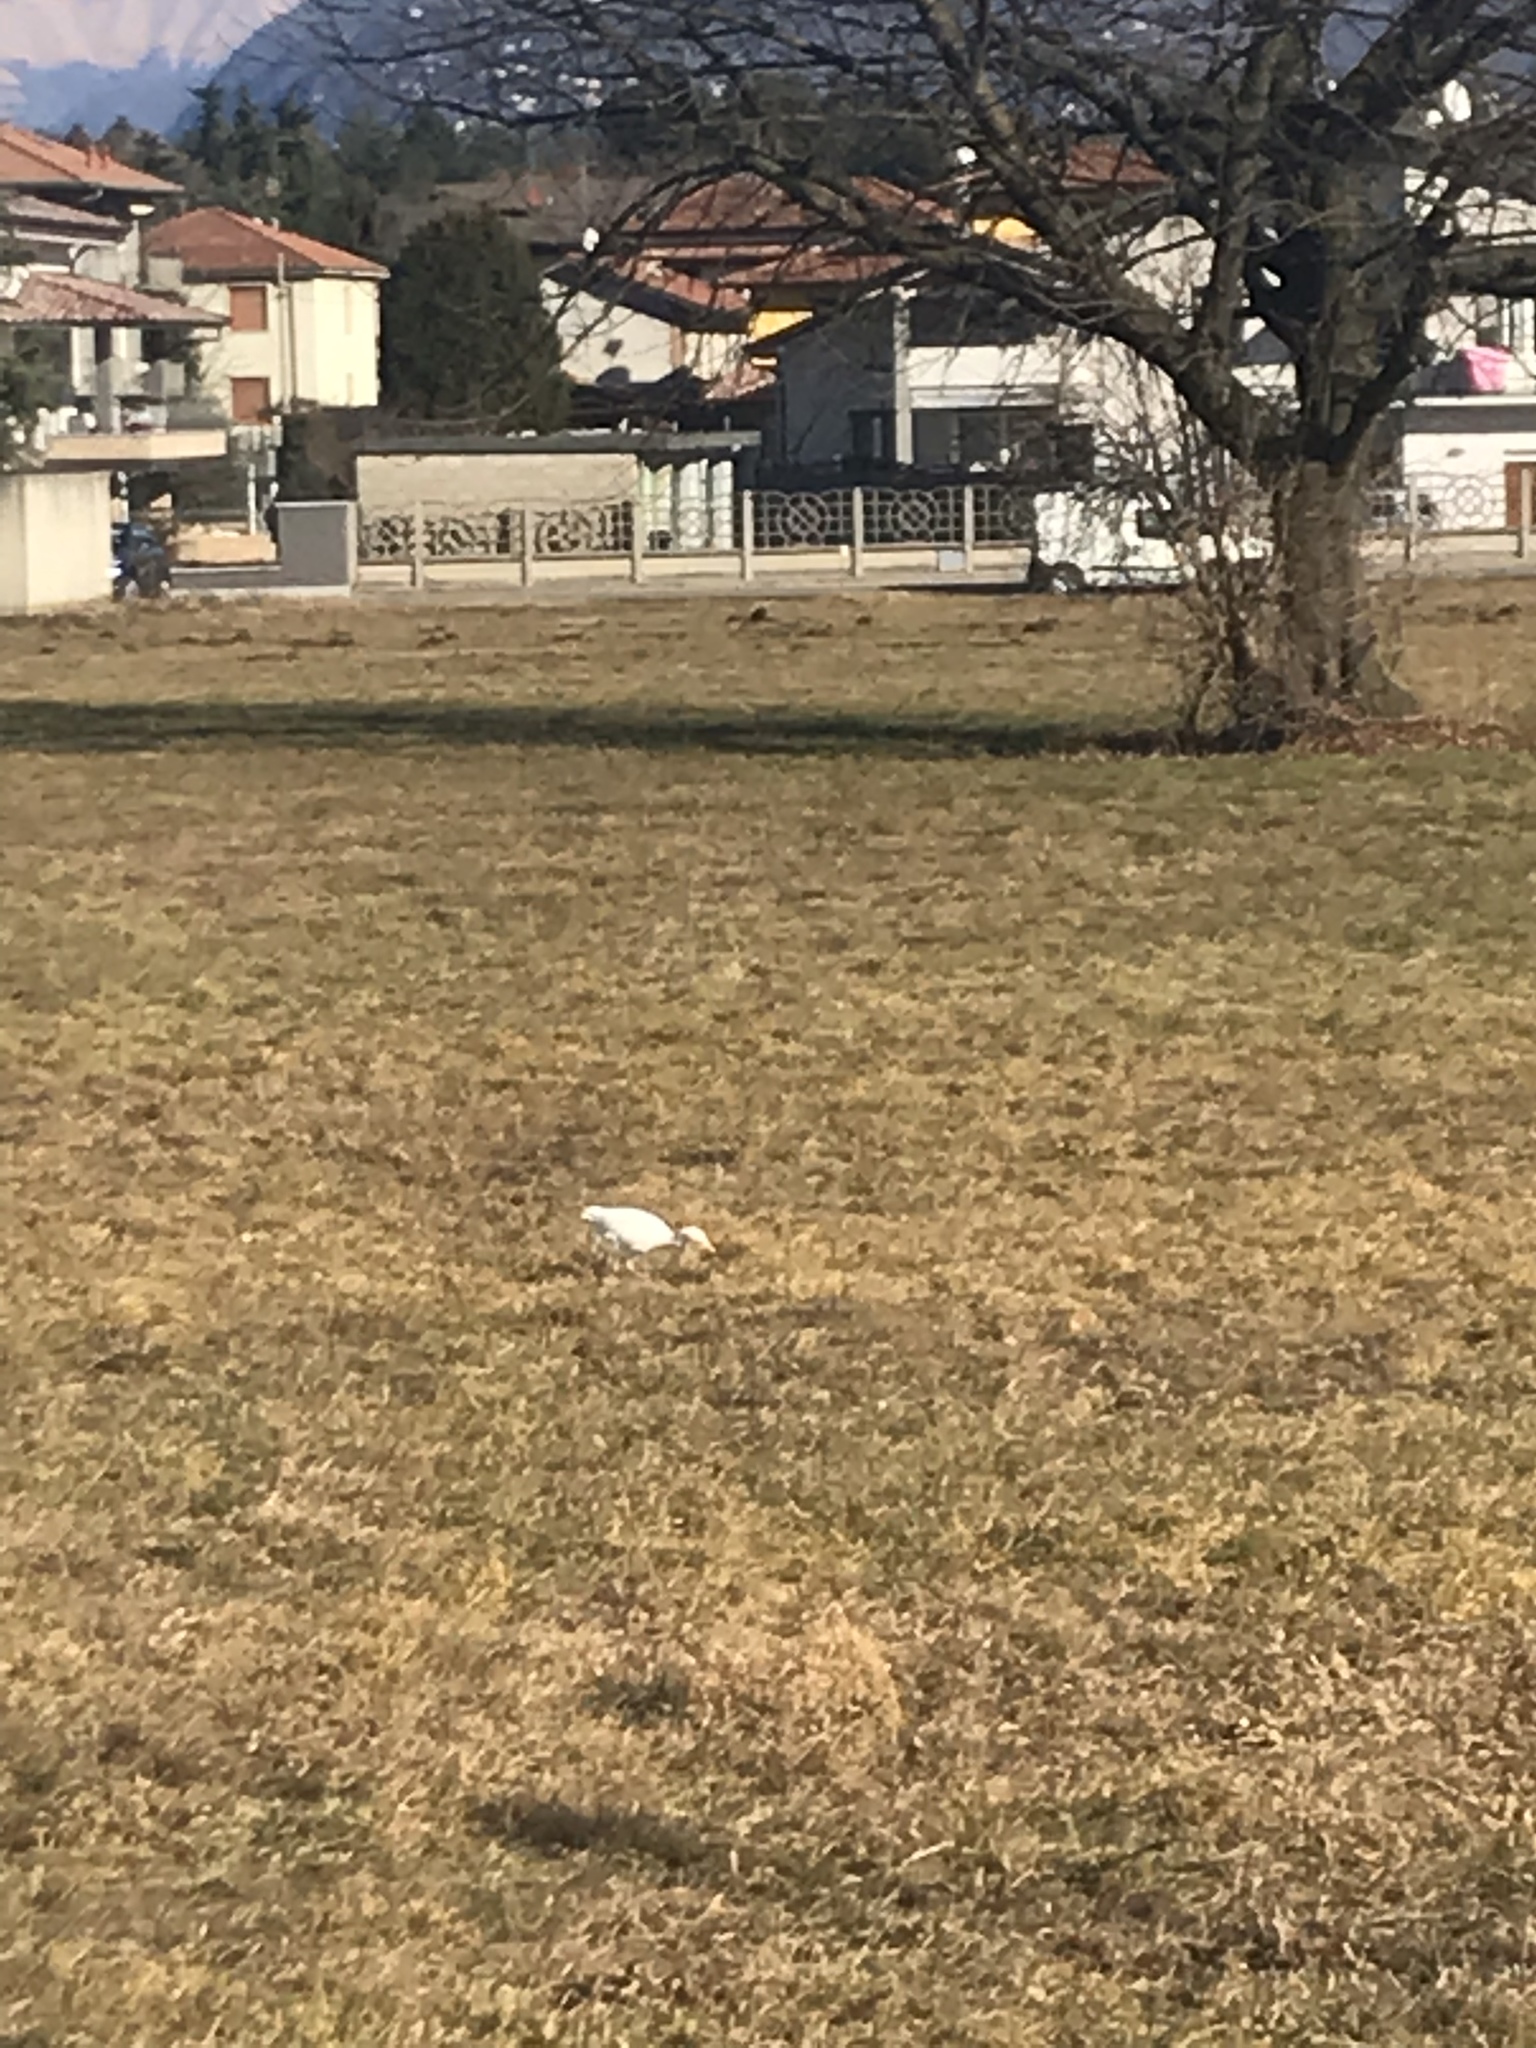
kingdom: Animalia
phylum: Chordata
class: Aves
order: Pelecaniformes
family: Ardeidae
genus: Bubulcus
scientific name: Bubulcus ibis
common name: Cattle egret
